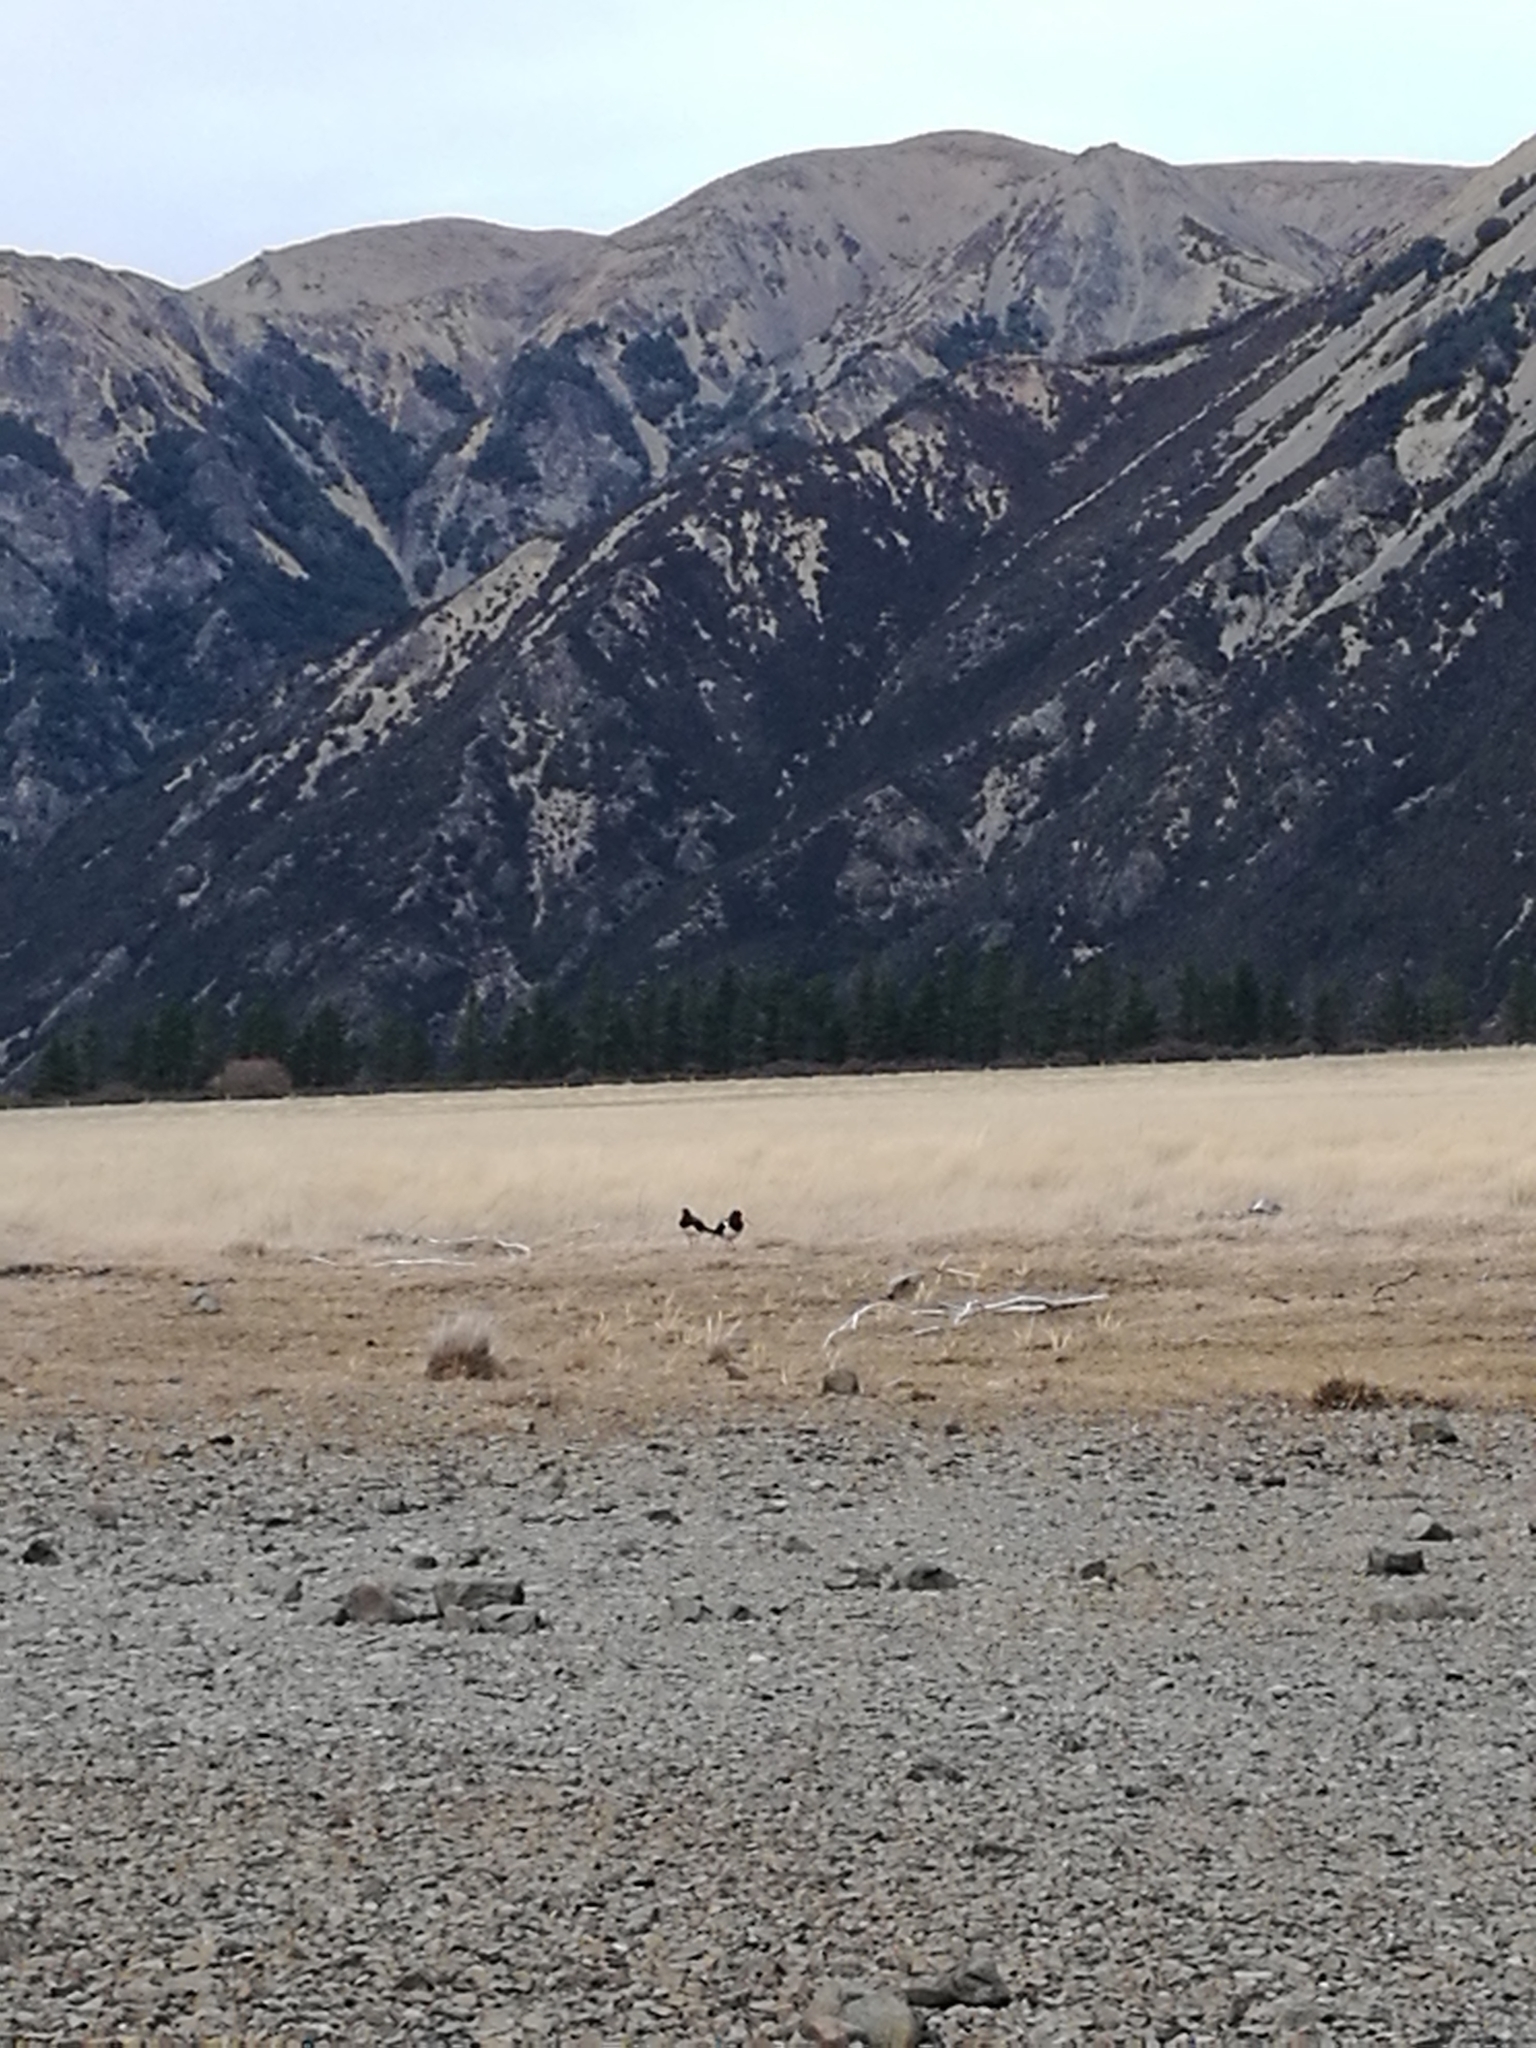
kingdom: Animalia
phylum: Chordata
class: Aves
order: Charadriiformes
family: Haematopodidae
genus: Haematopus
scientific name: Haematopus finschi
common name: South island oystercatcher
